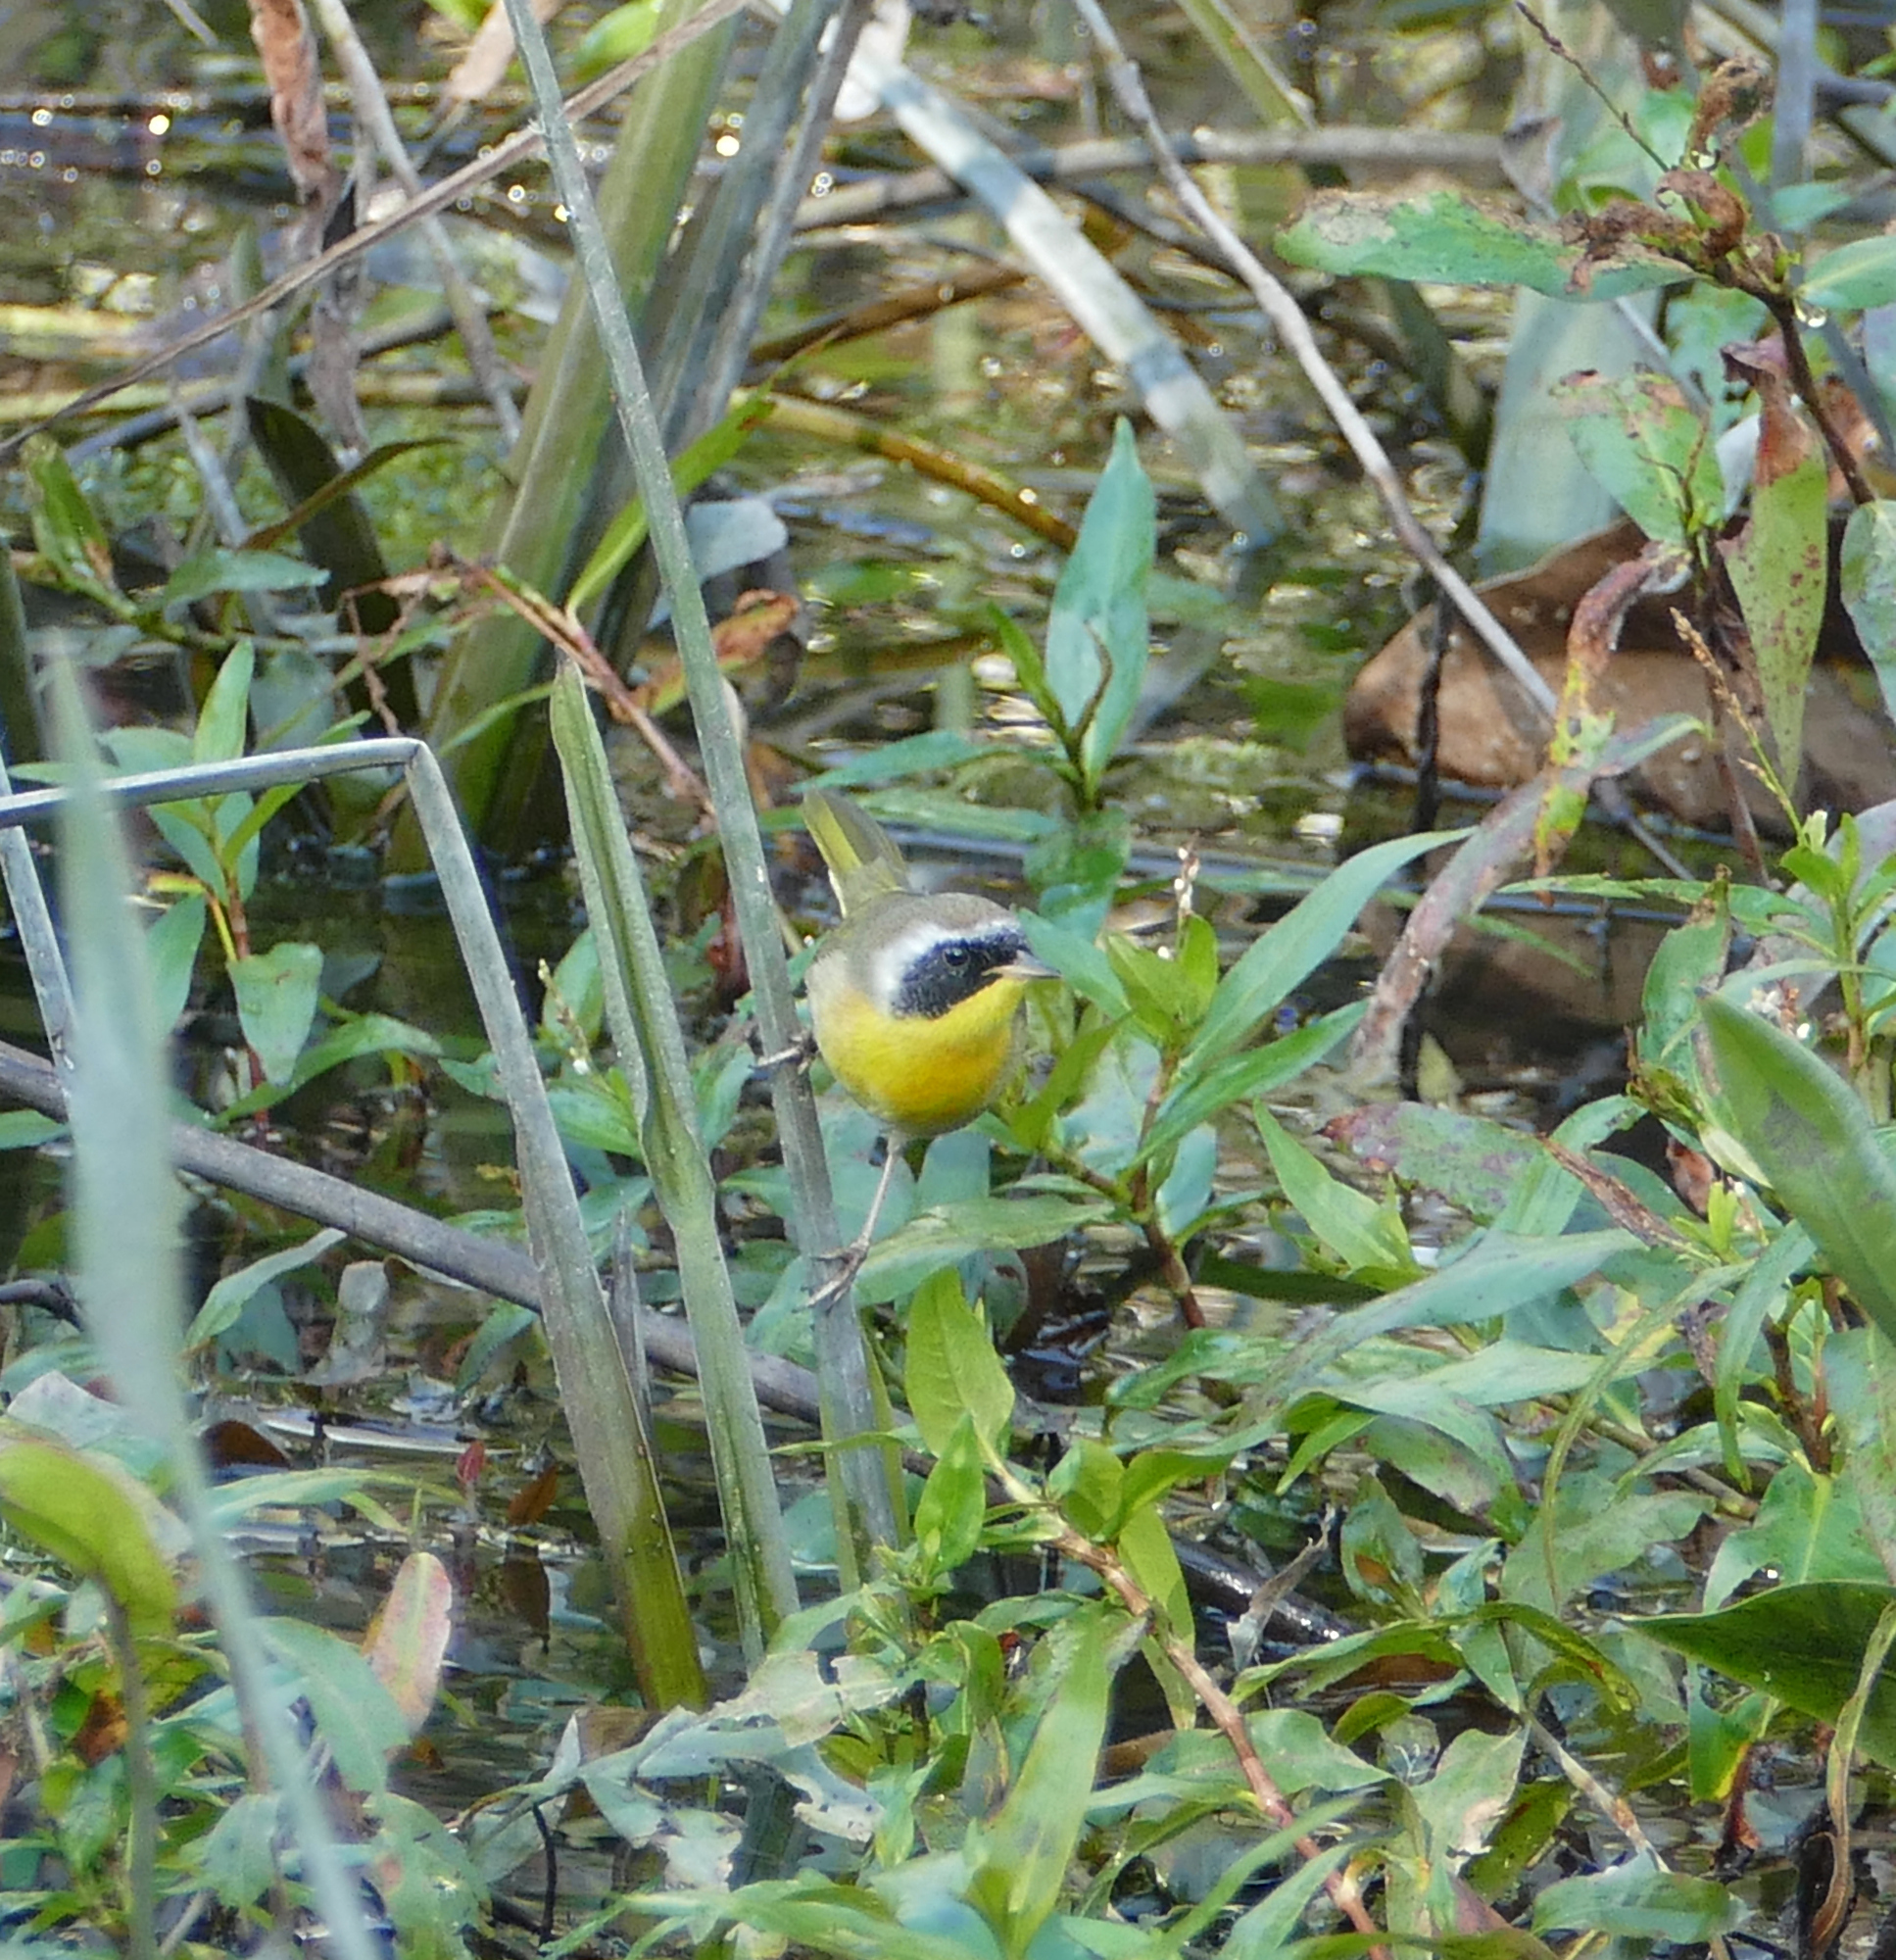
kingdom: Animalia
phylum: Chordata
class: Aves
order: Passeriformes
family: Parulidae
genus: Geothlypis
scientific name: Geothlypis trichas
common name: Common yellowthroat
